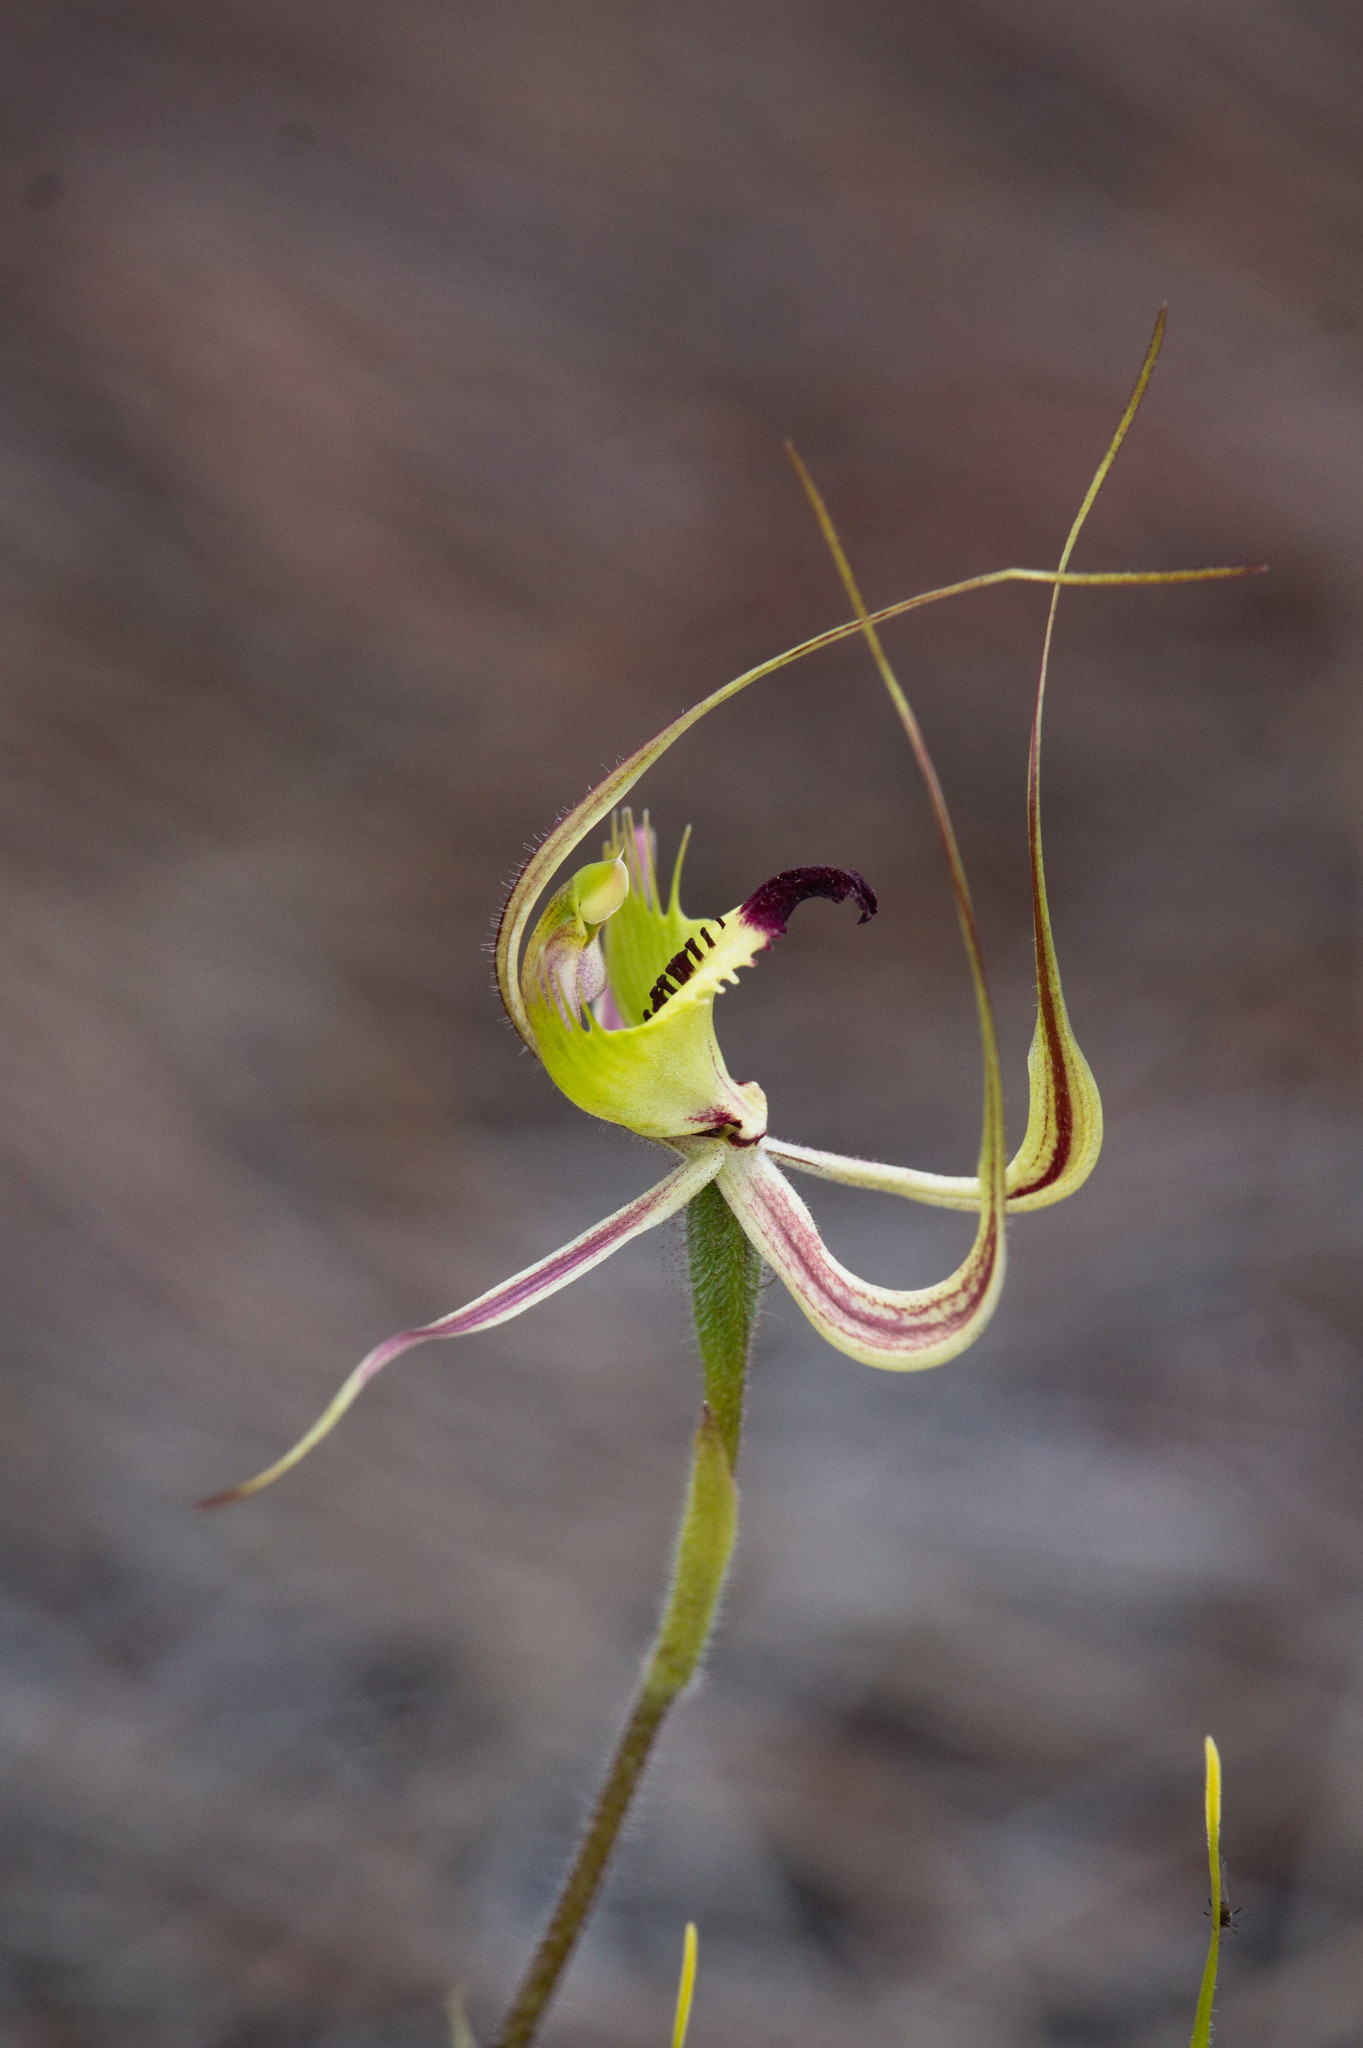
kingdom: Plantae
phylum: Tracheophyta
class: Liliopsida
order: Asparagales
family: Orchidaceae
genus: Caladenia
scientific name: Caladenia falcata
